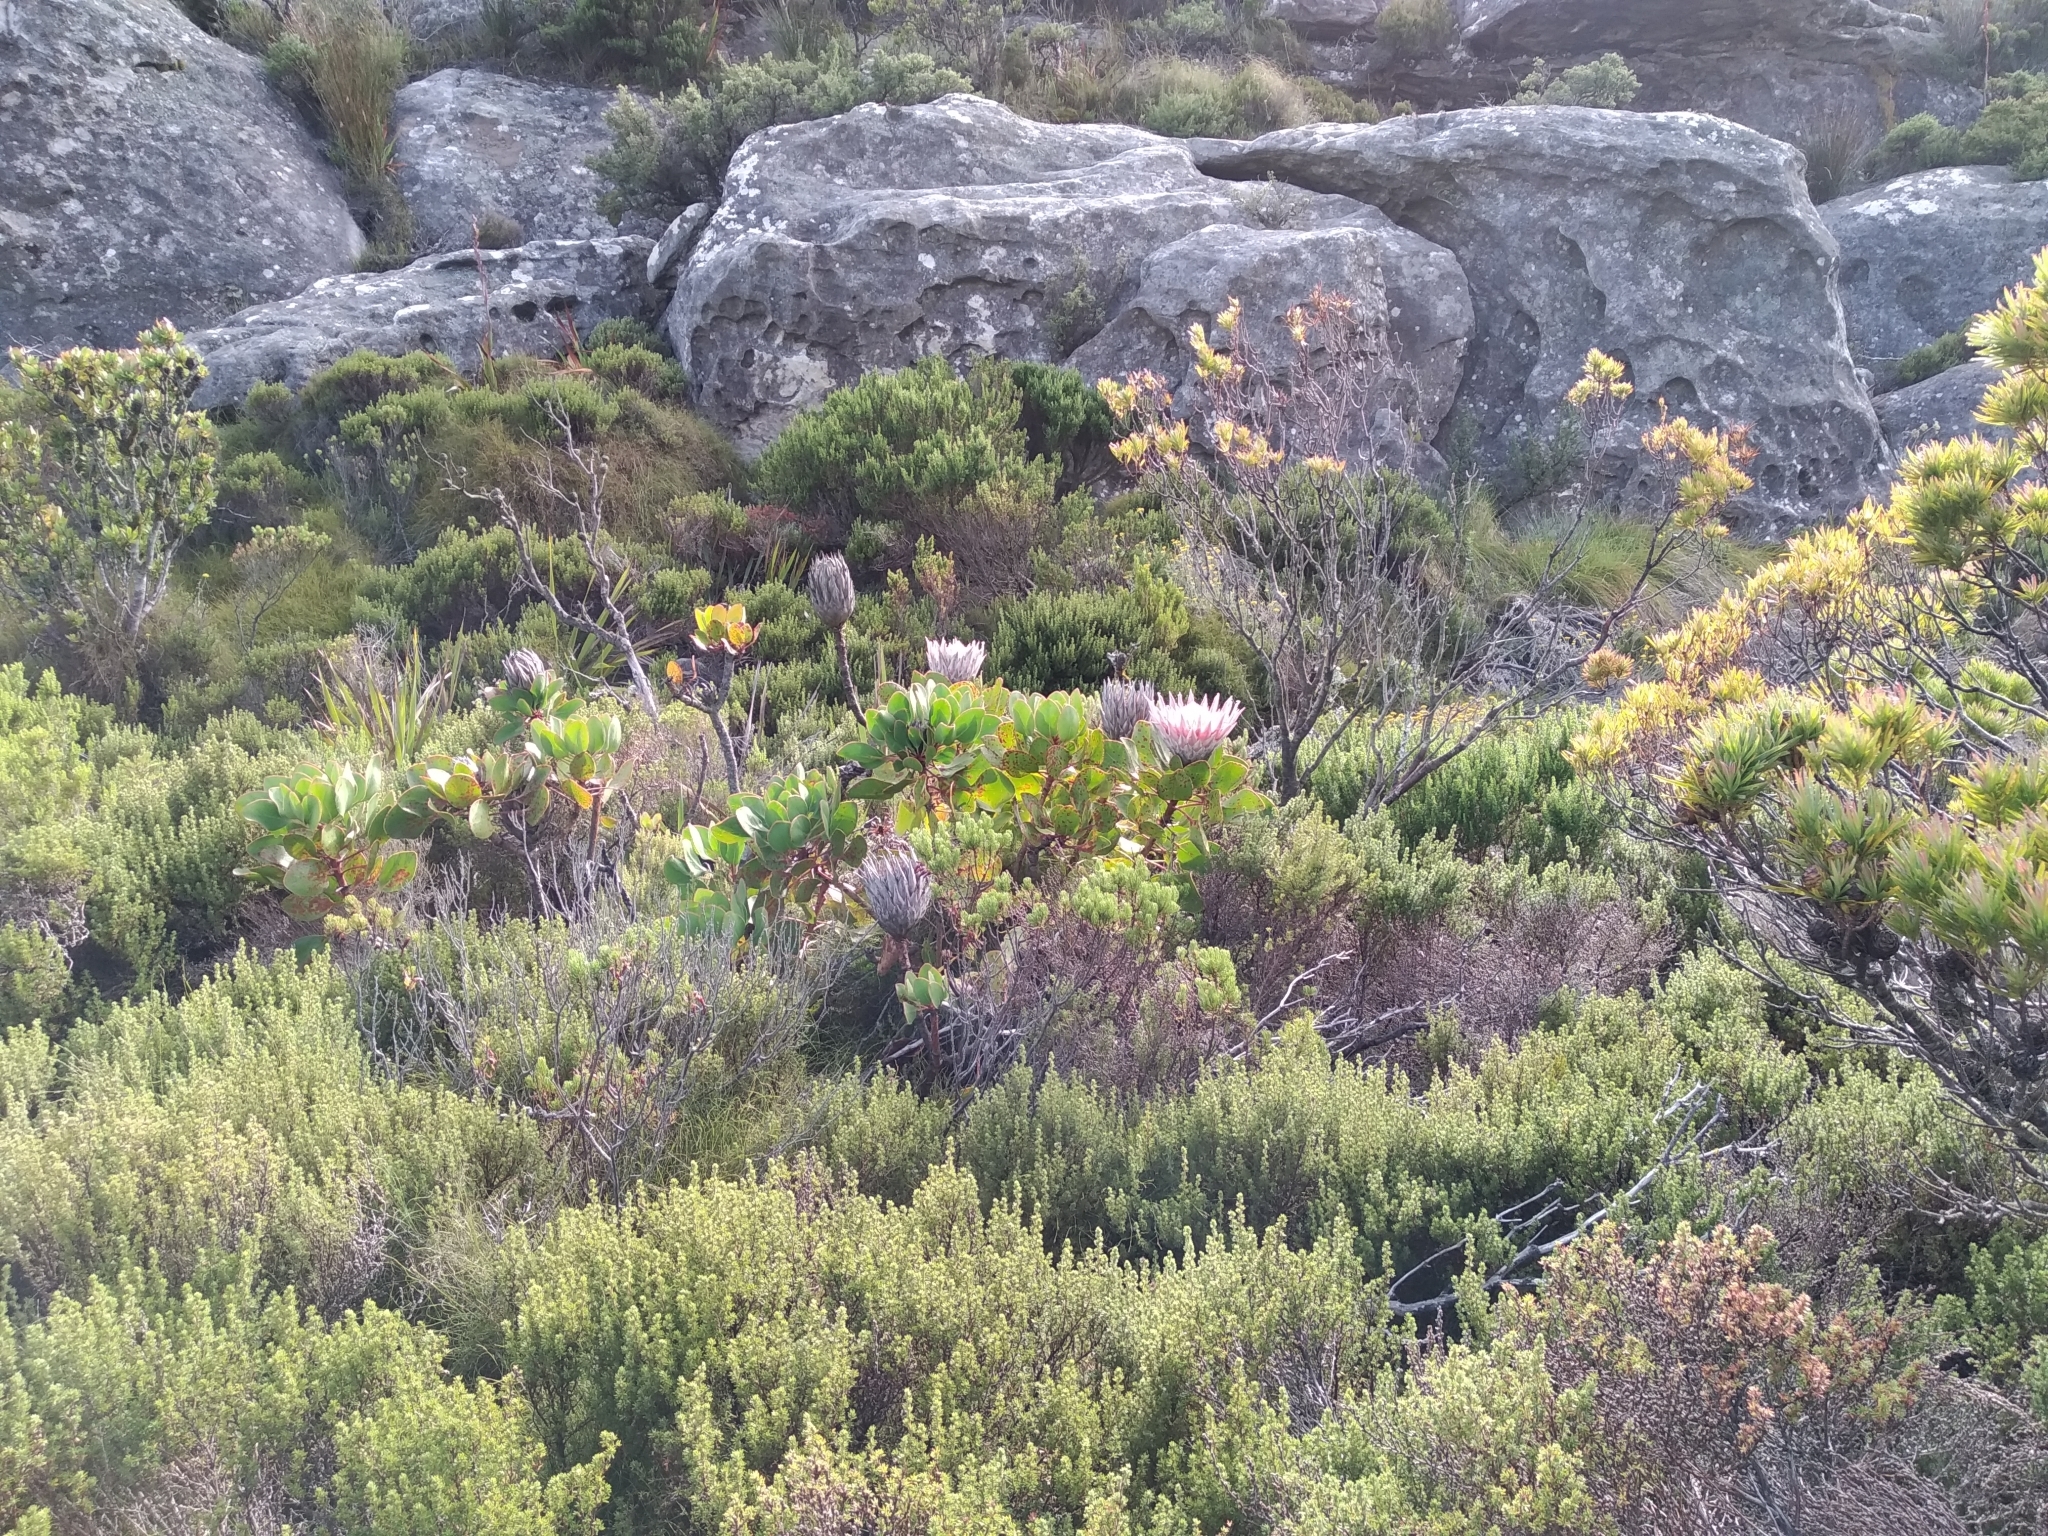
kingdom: Plantae
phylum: Tracheophyta
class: Magnoliopsida
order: Proteales
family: Proteaceae
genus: Protea
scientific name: Protea cynaroides
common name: King protea
